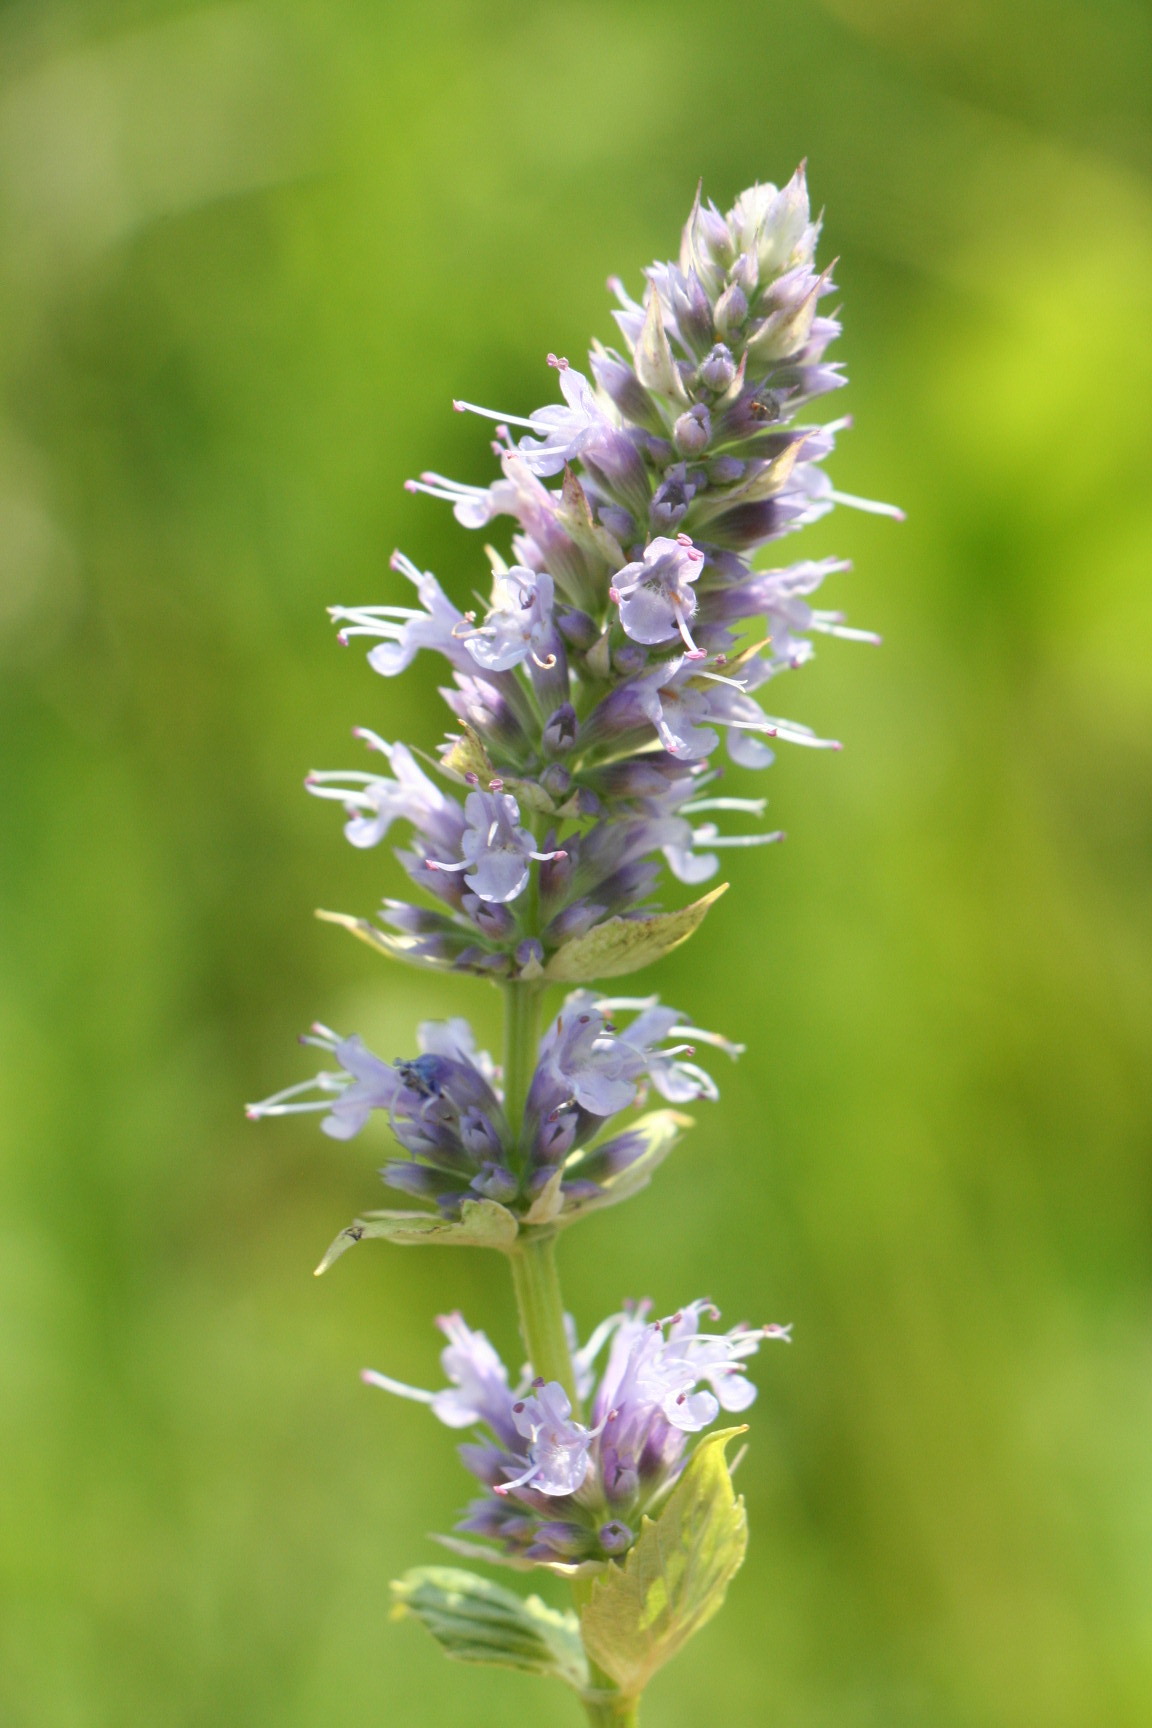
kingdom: Plantae
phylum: Tracheophyta
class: Magnoliopsida
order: Lamiales
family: Lamiaceae
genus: Agastache
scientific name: Agastache foeniculum
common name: Anise hyssop
